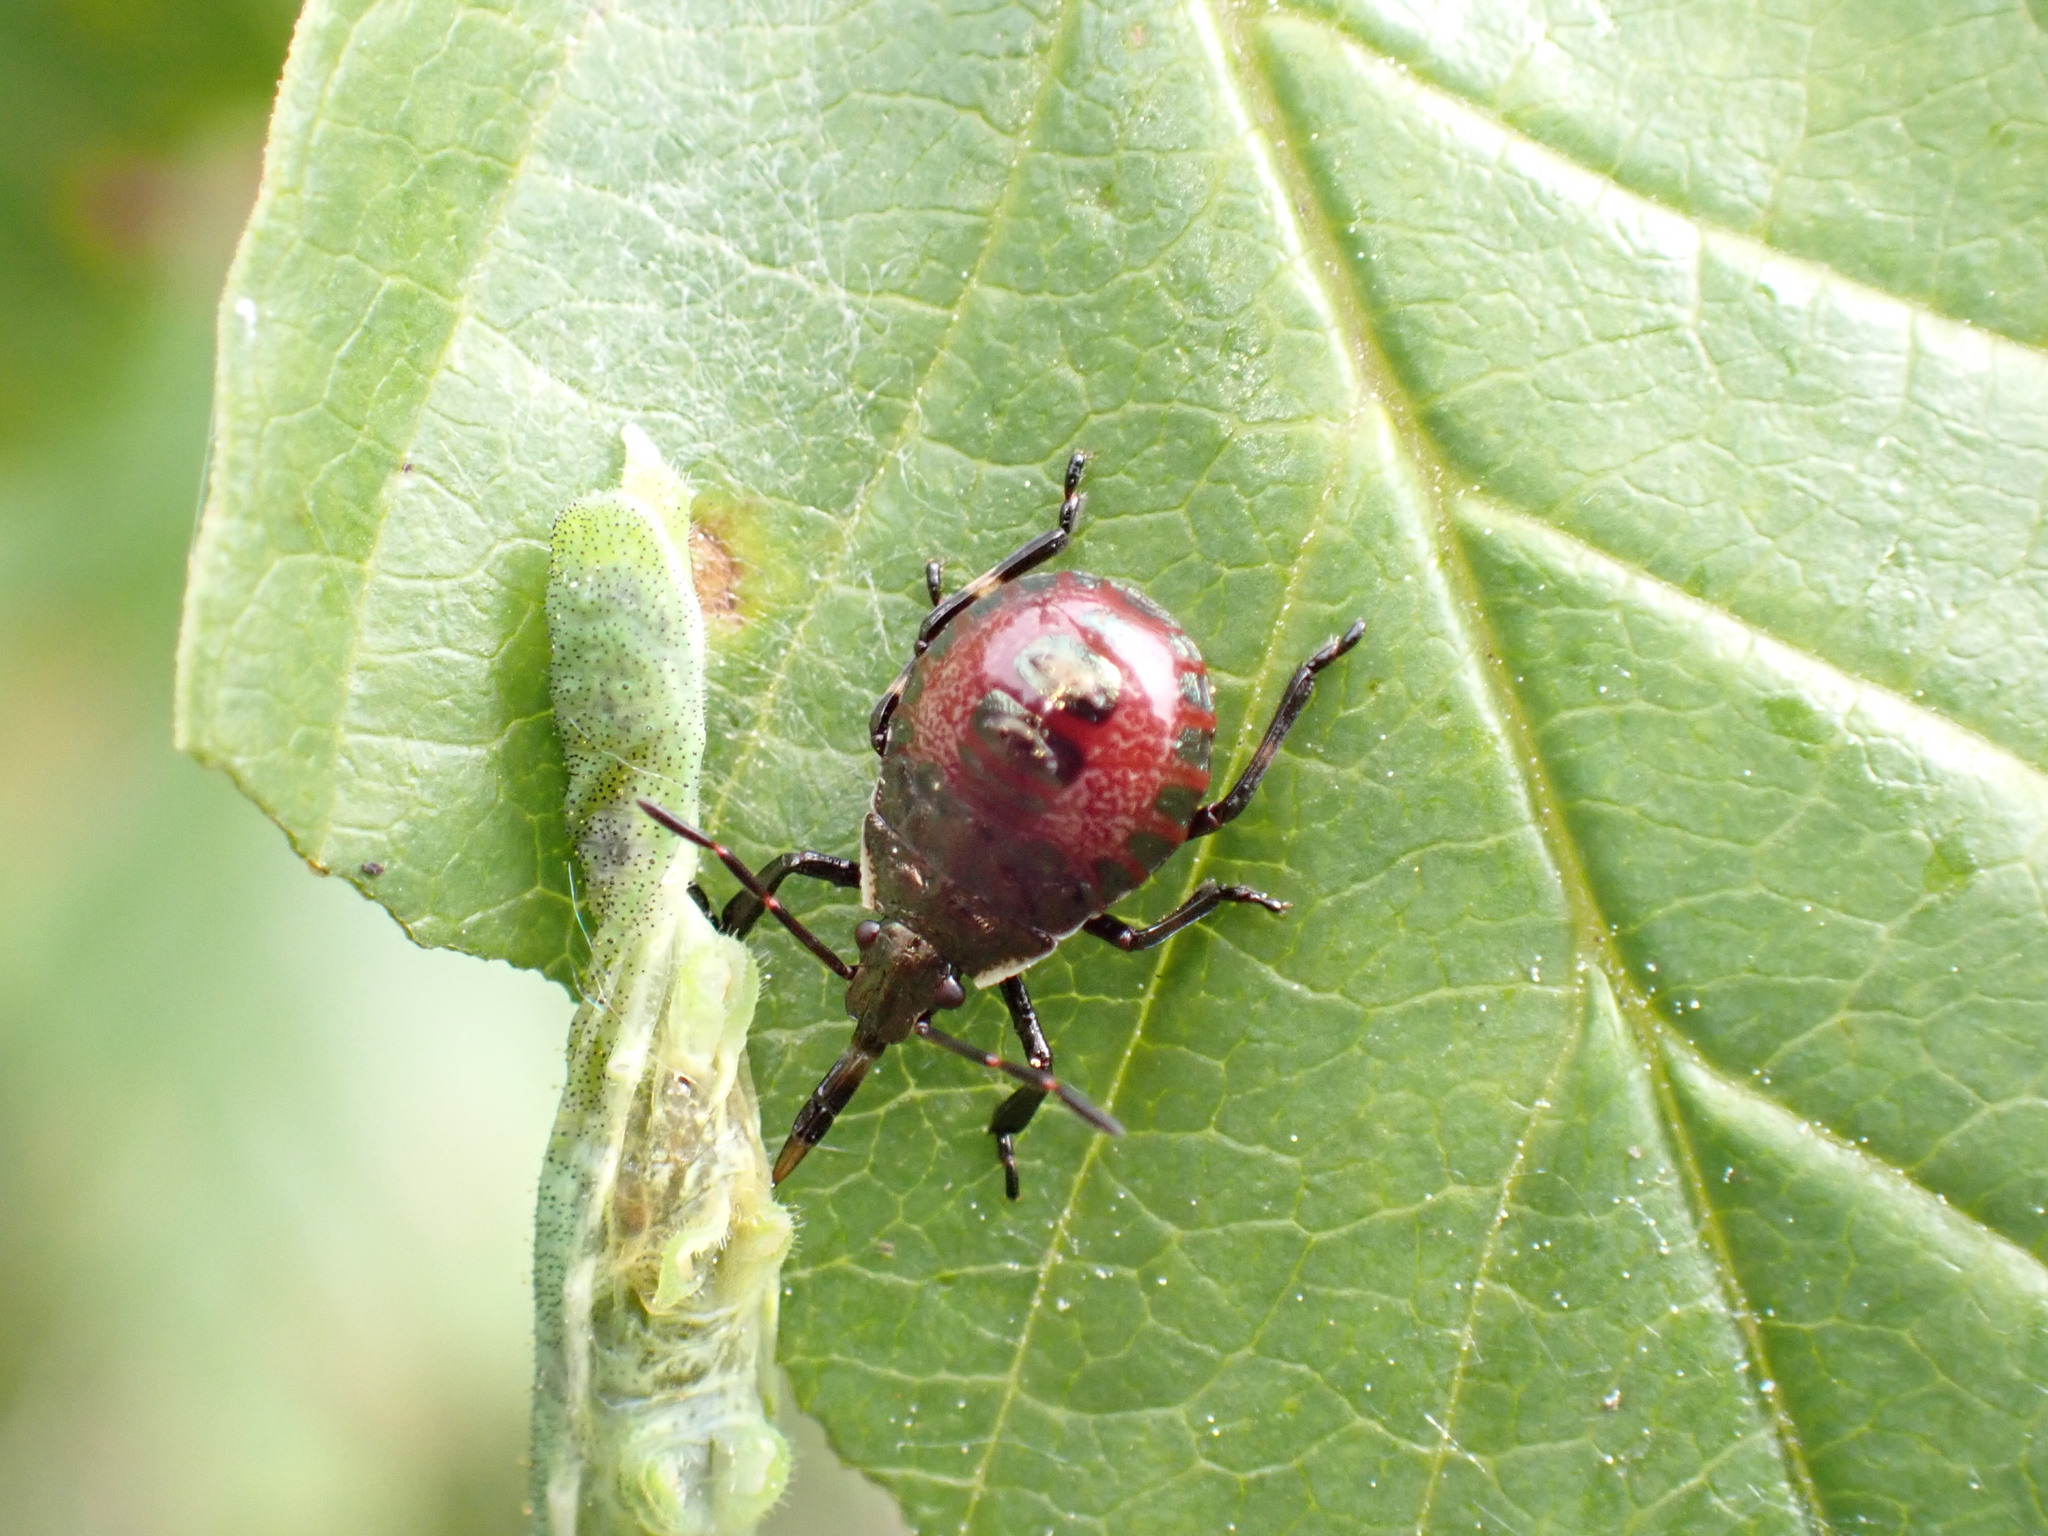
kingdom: Animalia
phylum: Arthropoda
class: Insecta
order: Hemiptera
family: Pentatomidae
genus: Picromerus
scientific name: Picromerus bidens
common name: Spiked shieldbug
